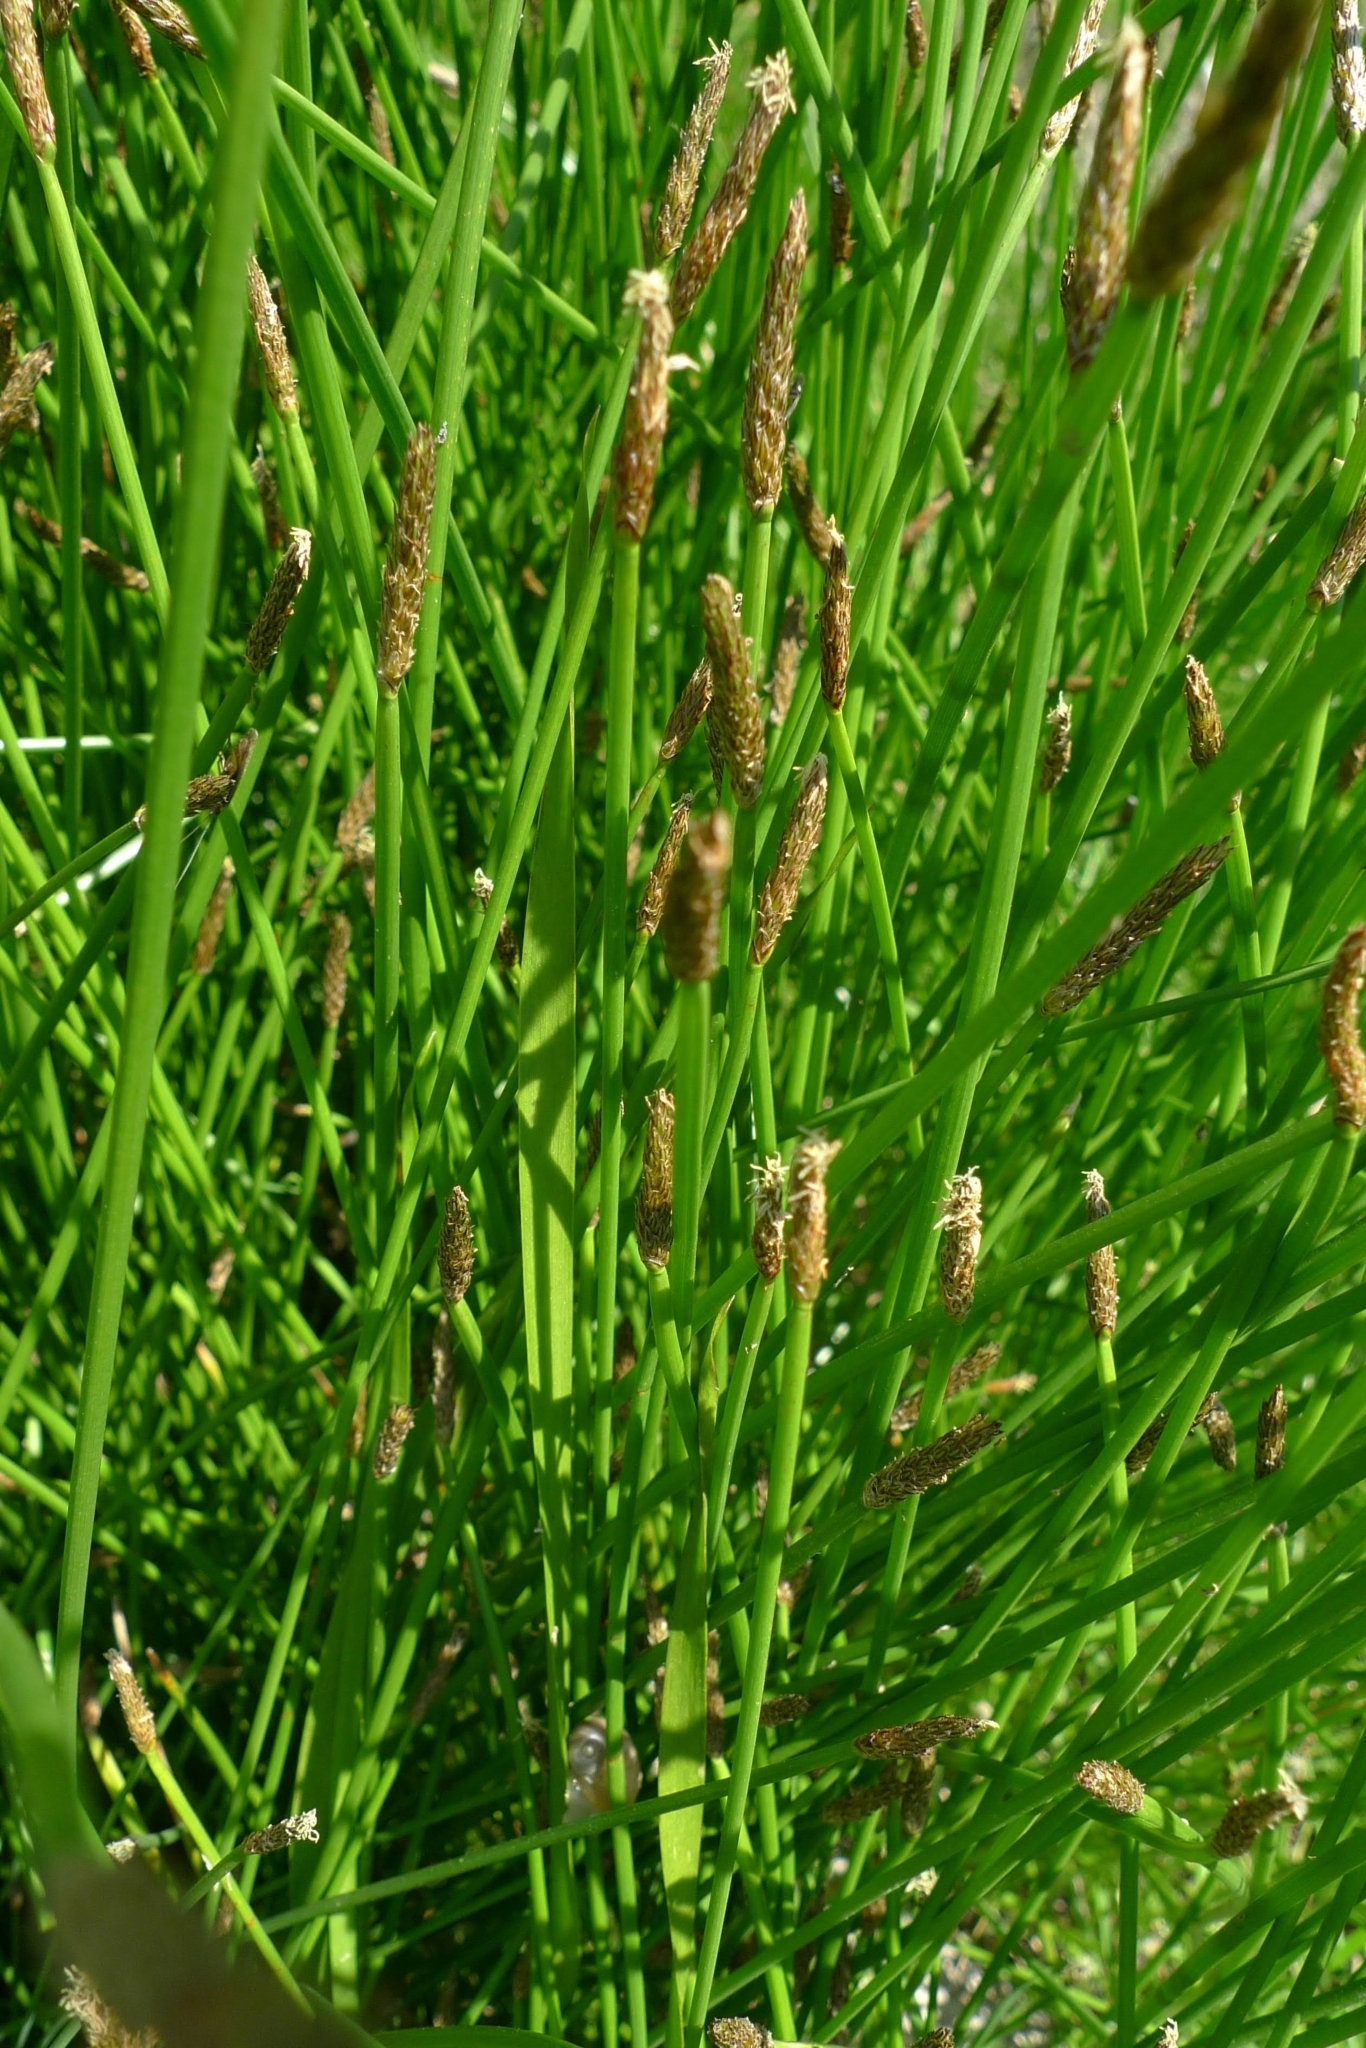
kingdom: Plantae
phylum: Tracheophyta
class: Liliopsida
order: Poales
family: Cyperaceae
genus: Eleocharis
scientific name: Eleocharis palustris
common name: Common spike-rush
